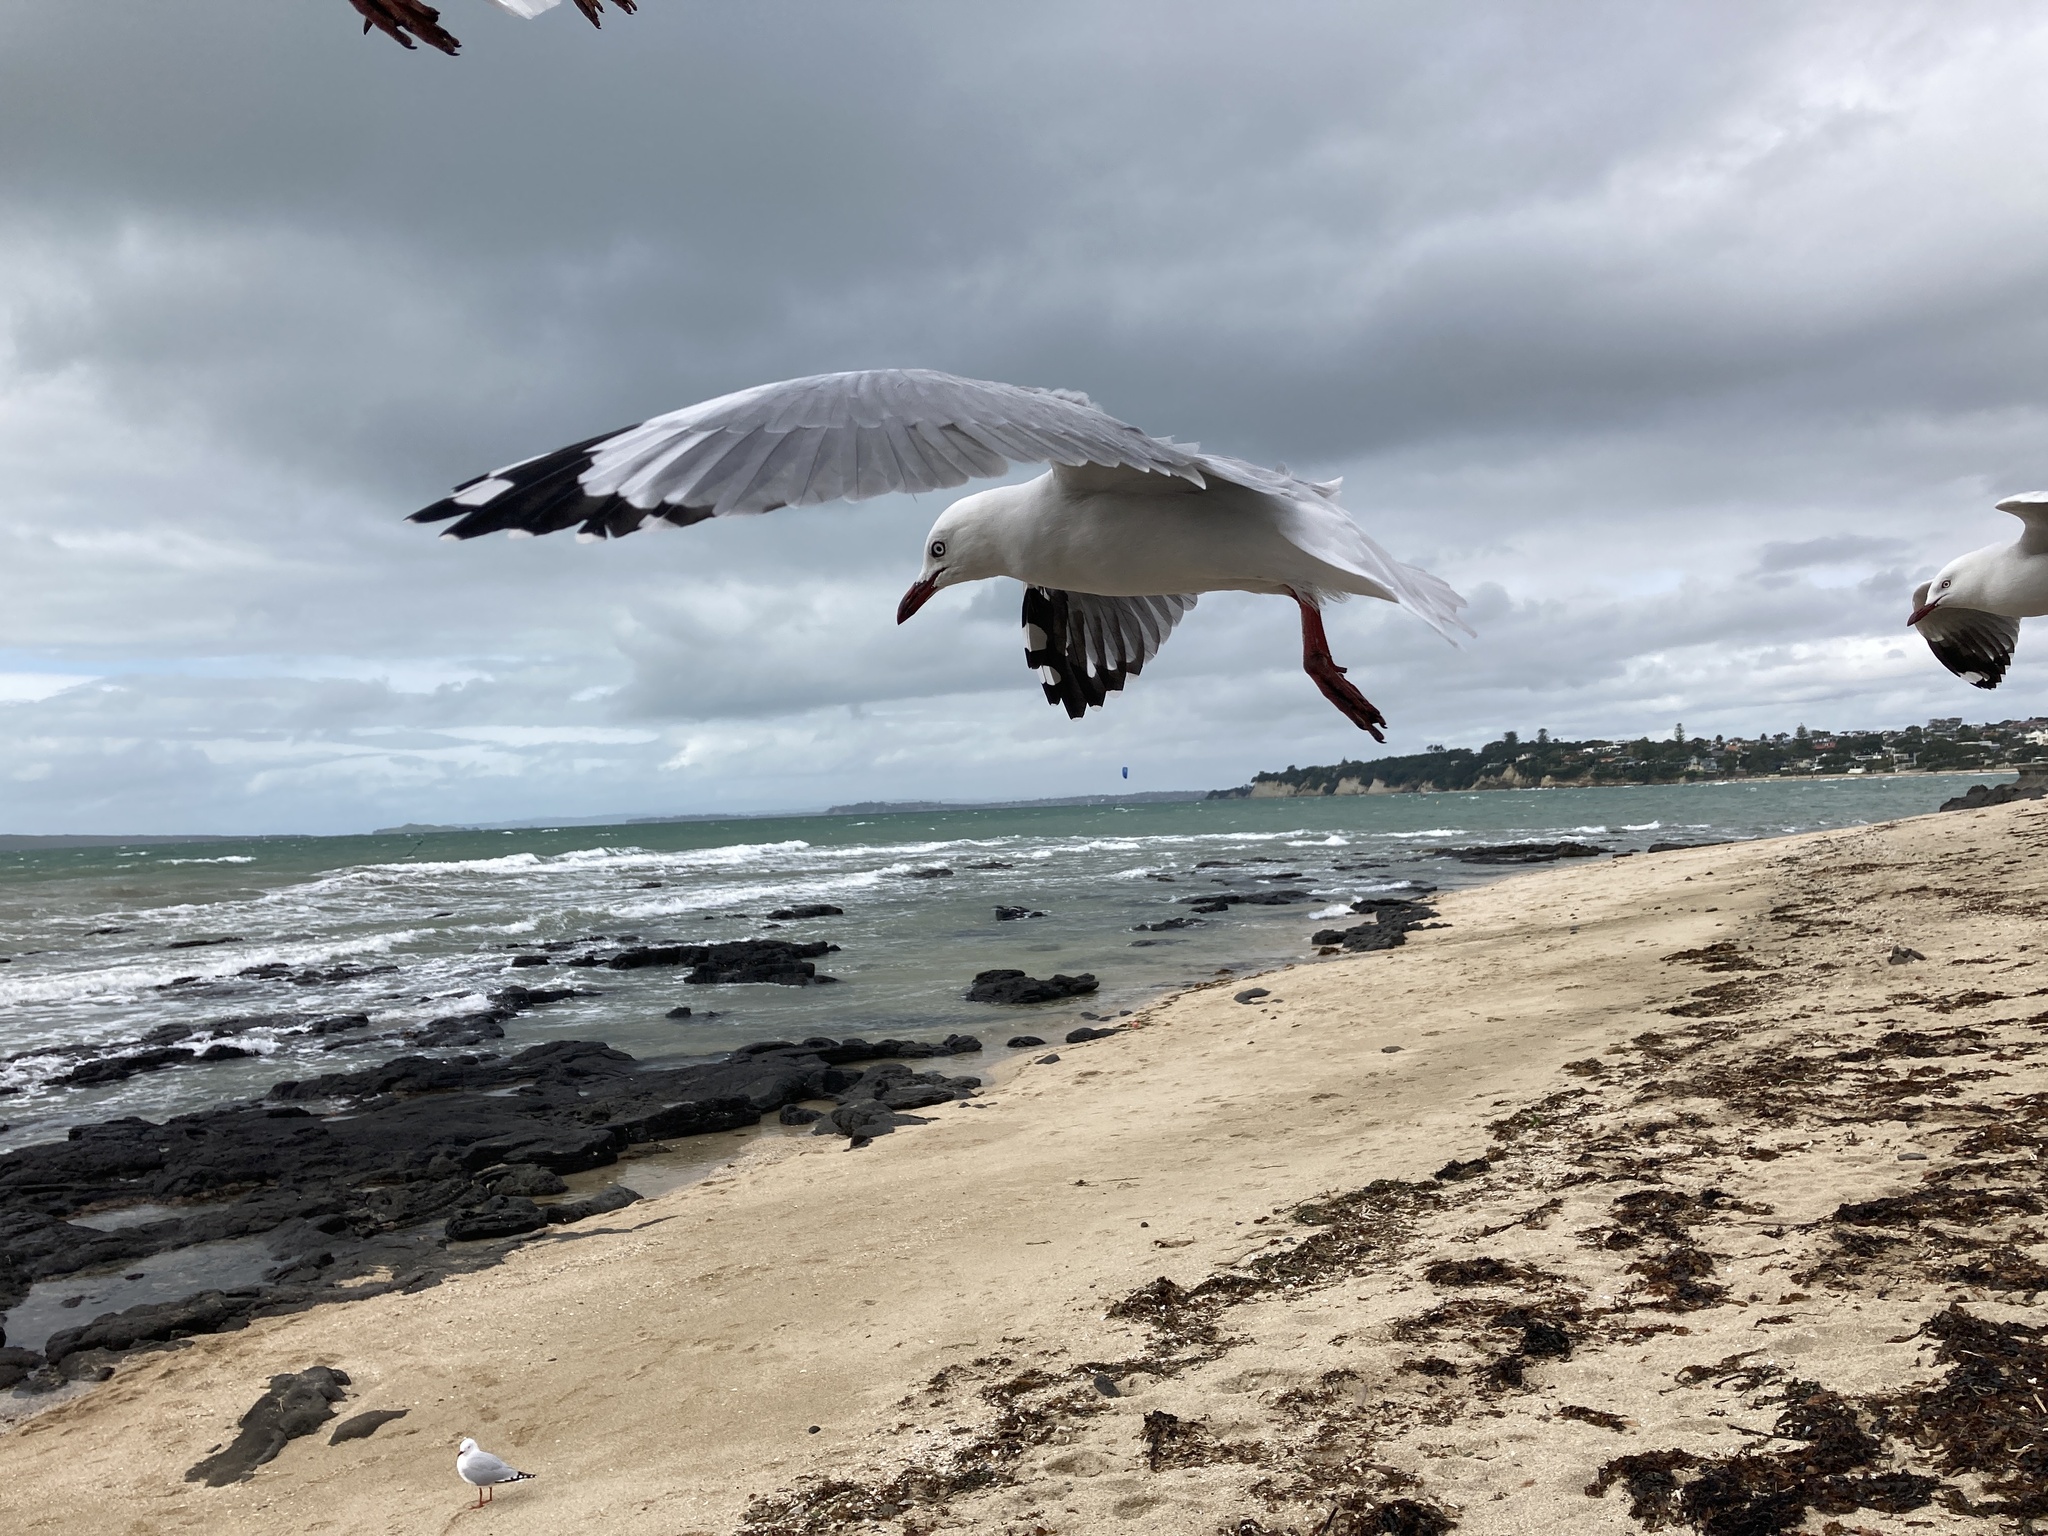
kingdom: Animalia
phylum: Chordata
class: Aves
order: Charadriiformes
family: Laridae
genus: Chroicocephalus
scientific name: Chroicocephalus novaehollandiae
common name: Silver gull
